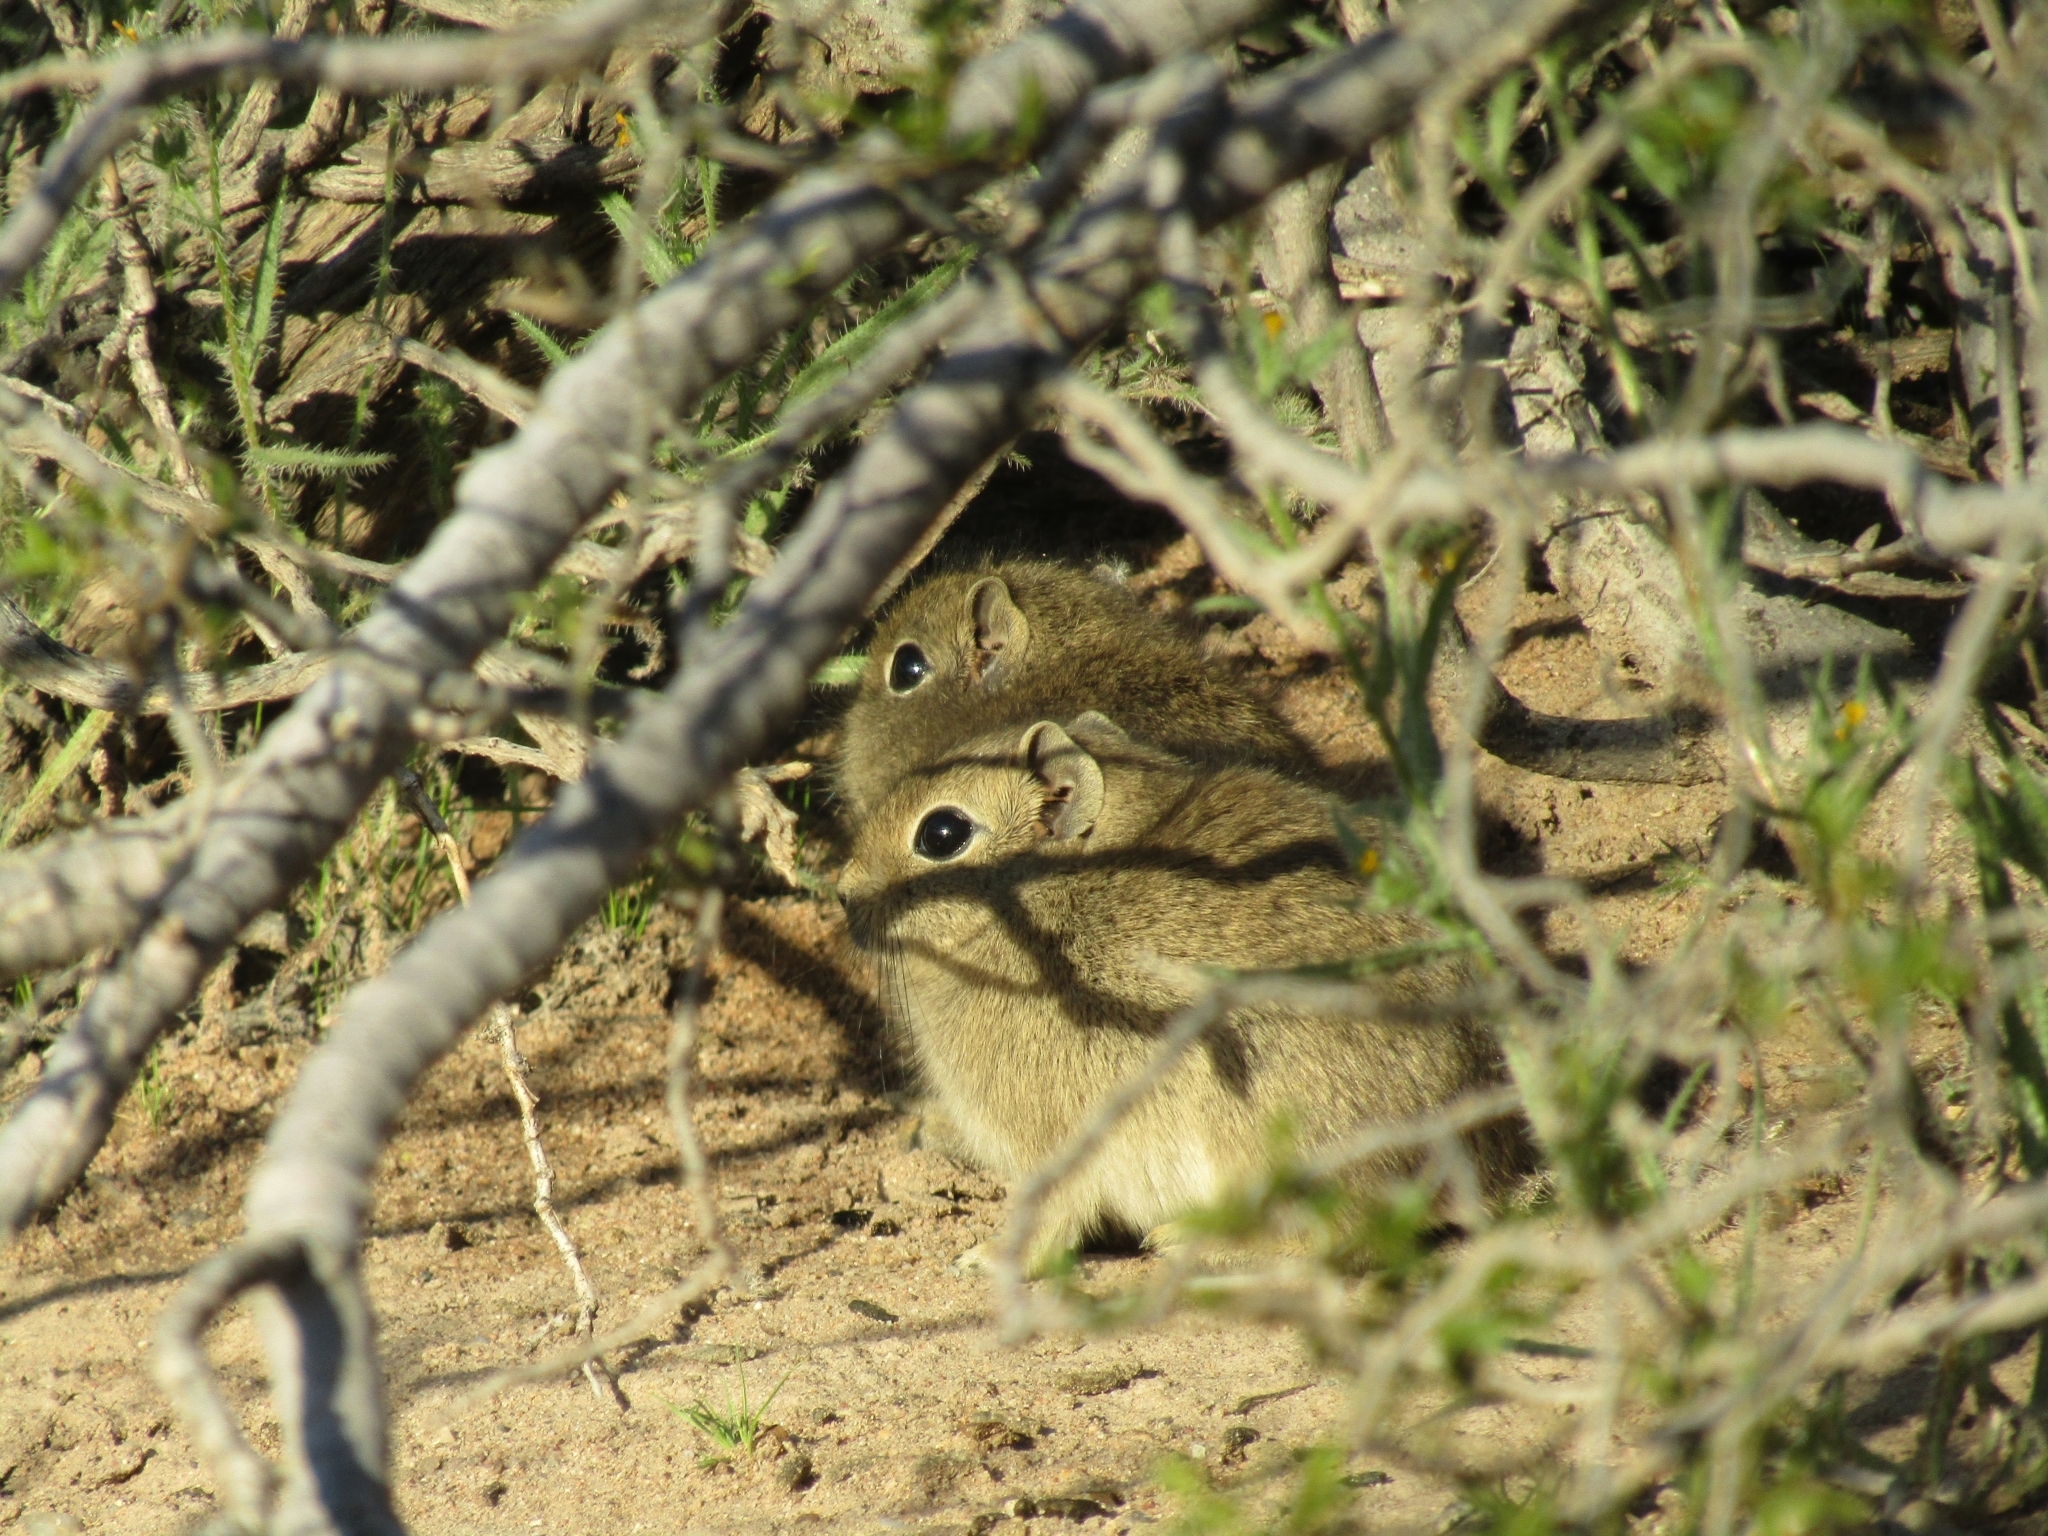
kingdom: Animalia
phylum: Chordata
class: Mammalia
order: Rodentia
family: Caviidae
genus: Microcavia
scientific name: Microcavia australis
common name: Southern mountain cavy
